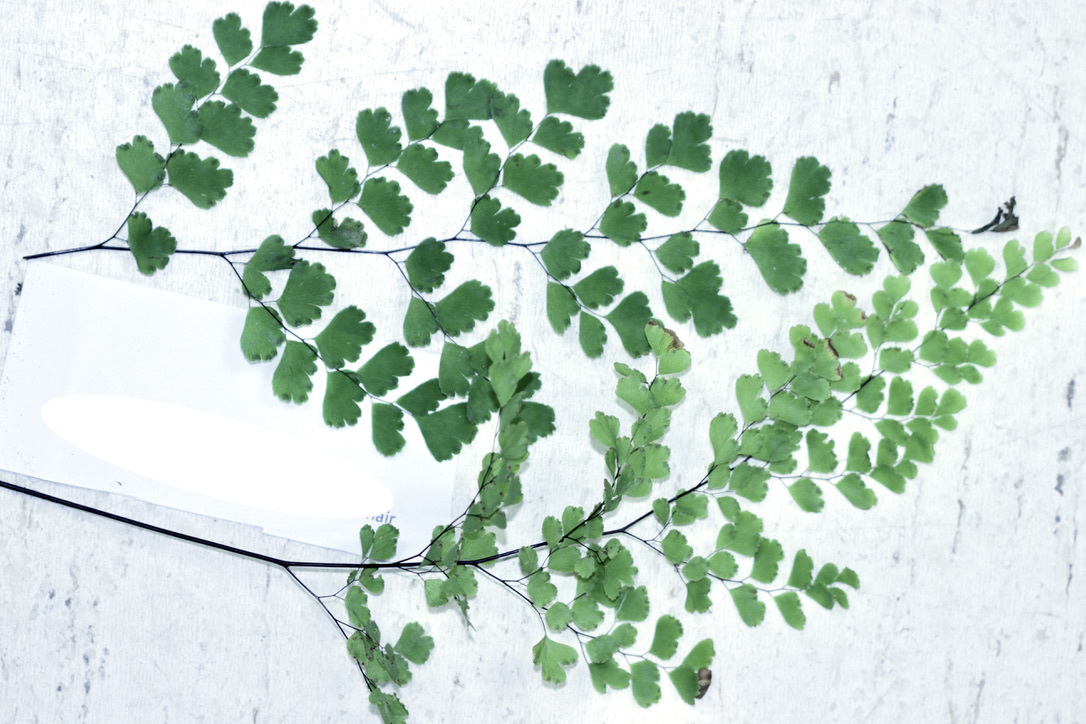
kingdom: Plantae
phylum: Tracheophyta
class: Polypodiopsida
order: Polypodiales
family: Pteridaceae
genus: Adiantum
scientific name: Adiantum raddianum
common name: Delta maidenhair fern
